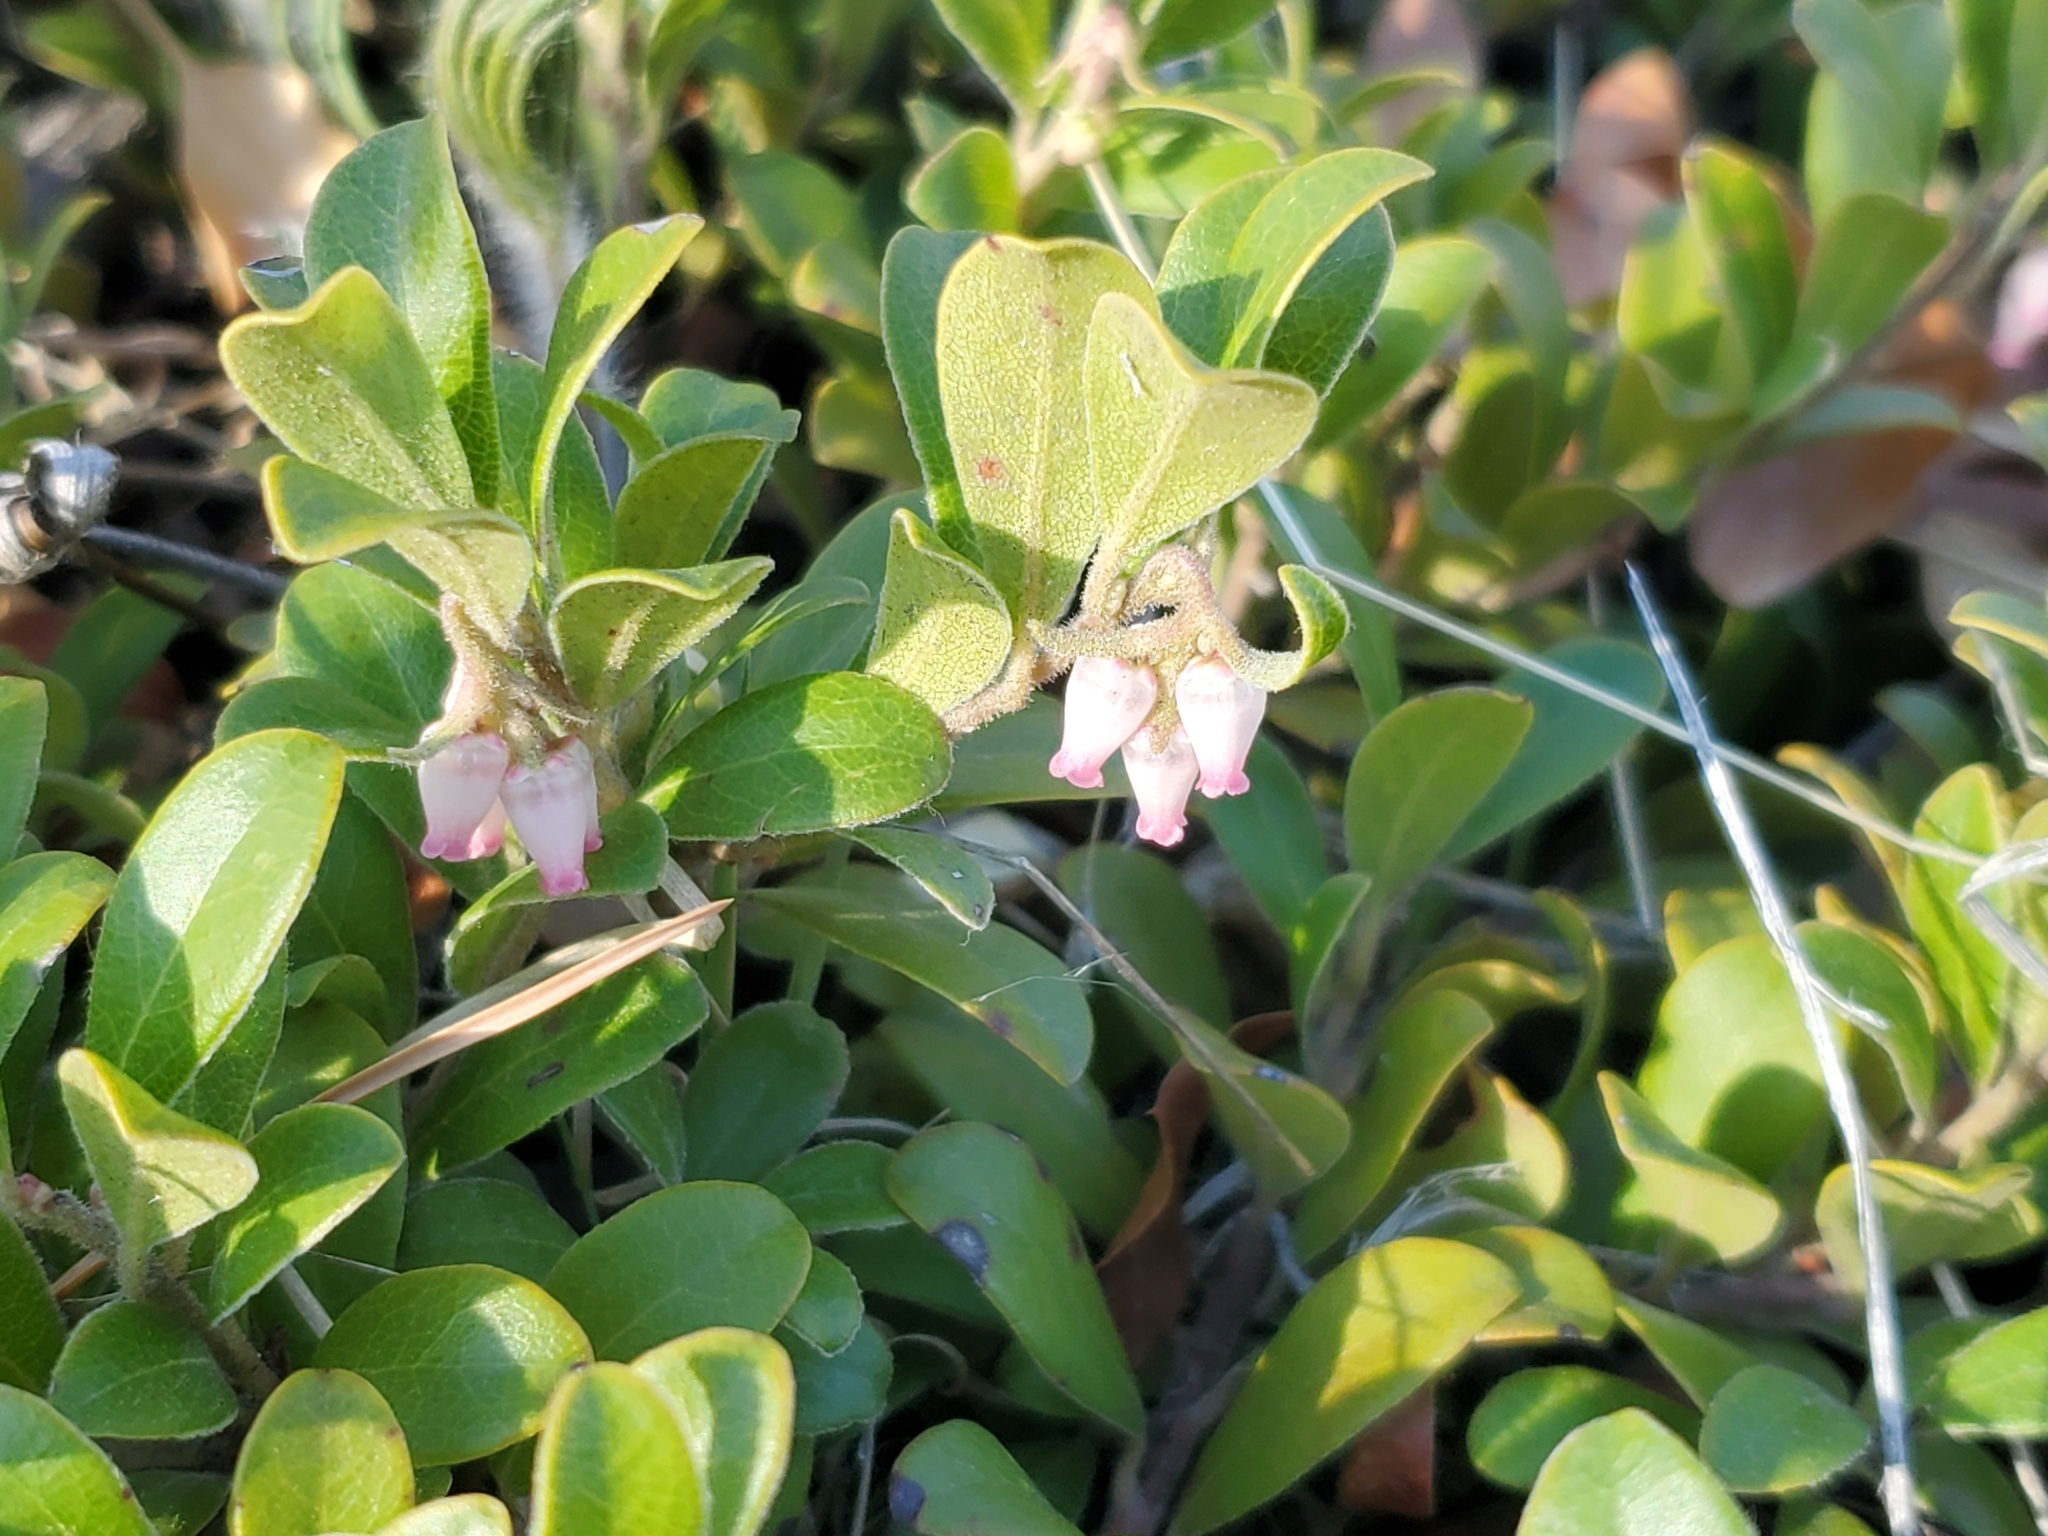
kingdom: Plantae
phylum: Tracheophyta
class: Magnoliopsida
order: Ericales
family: Ericaceae
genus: Arctostaphylos
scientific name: Arctostaphylos uva-ursi
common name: Bearberry
